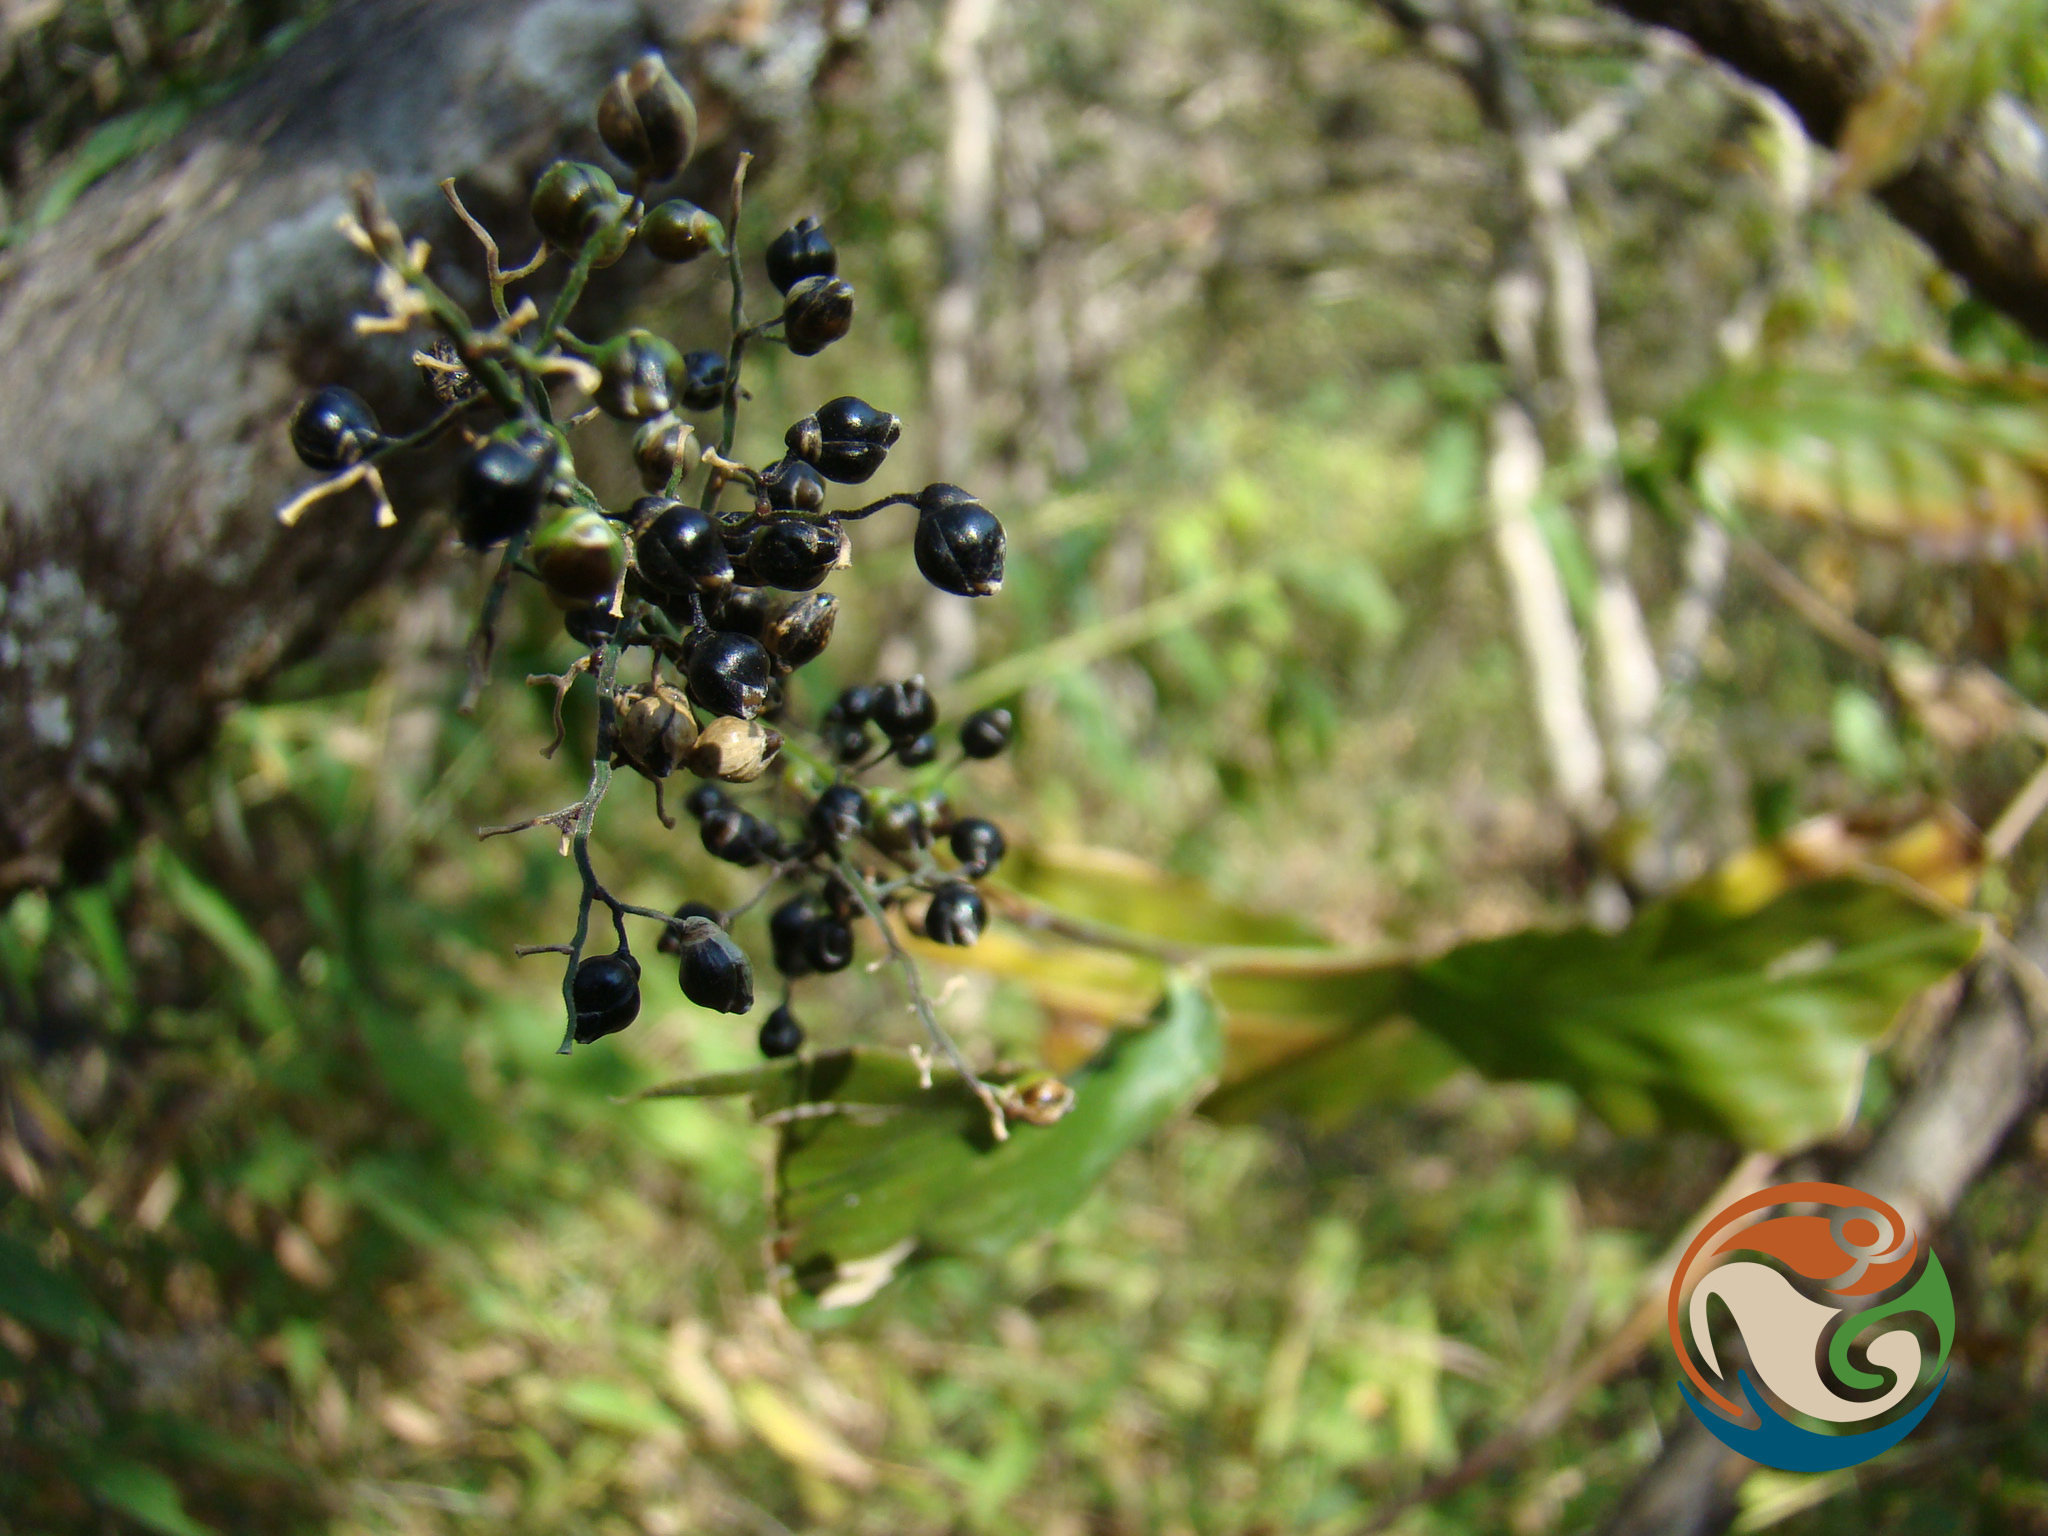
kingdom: Plantae
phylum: Tracheophyta
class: Liliopsida
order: Poales
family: Poaceae
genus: Lasiacis
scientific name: Lasiacis nigra
